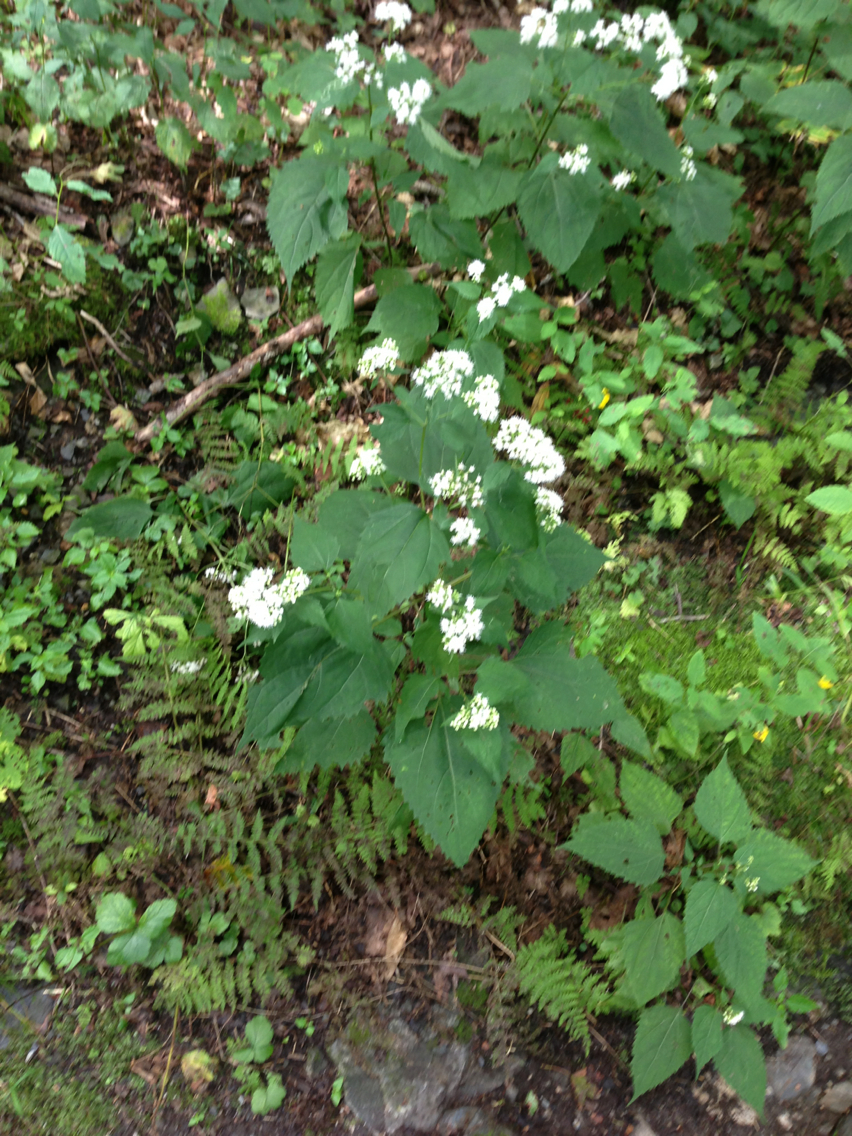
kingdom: Plantae
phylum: Tracheophyta
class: Magnoliopsida
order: Asterales
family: Asteraceae
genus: Ageratina
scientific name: Ageratina altissima
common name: White snakeroot
